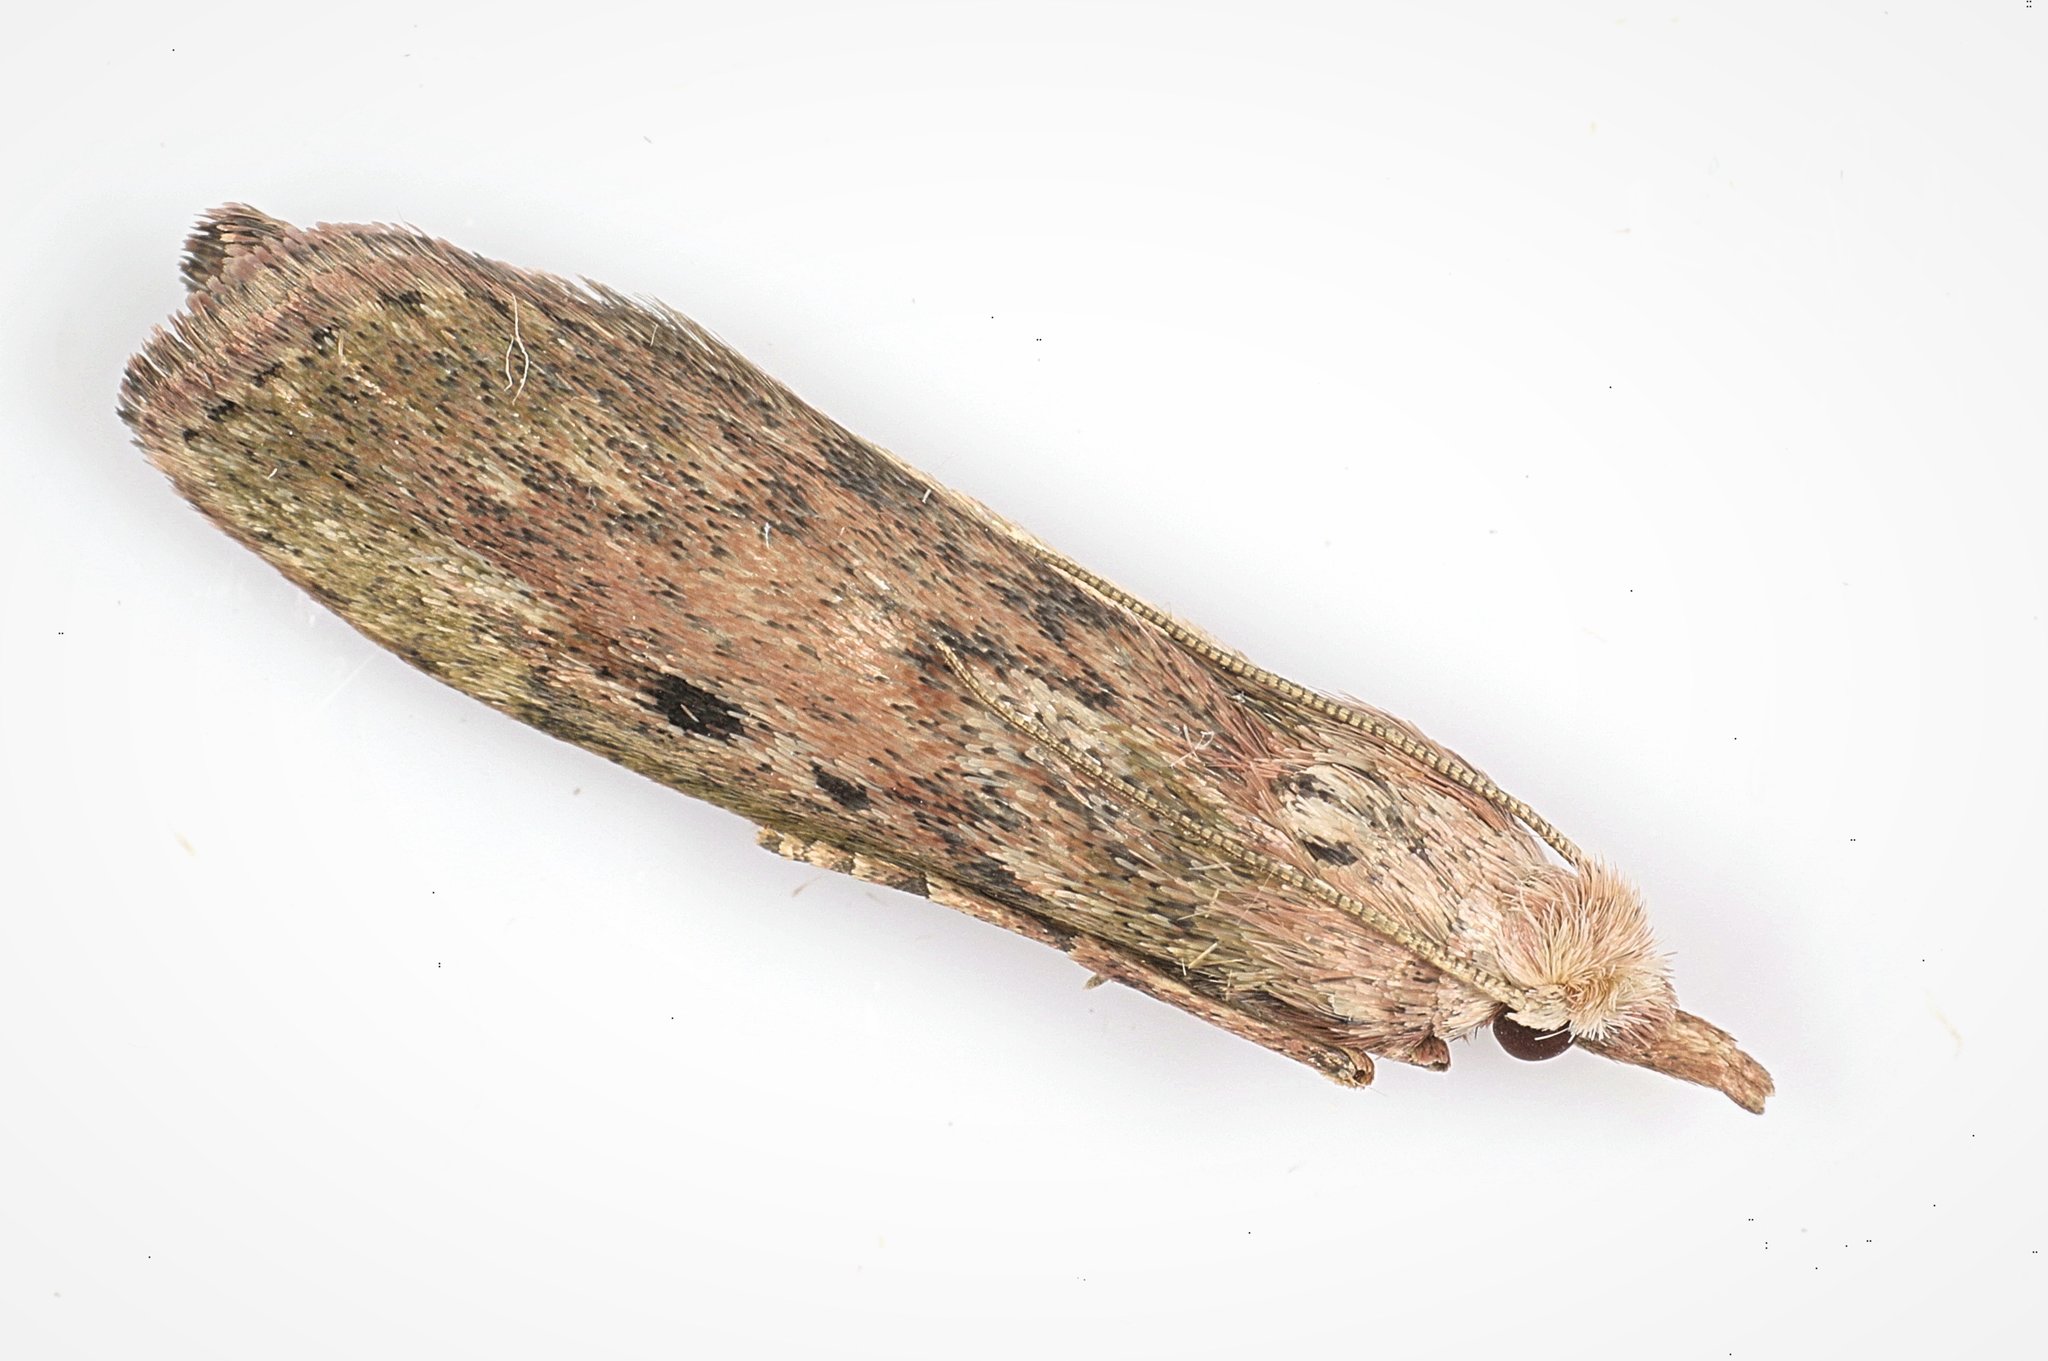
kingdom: Animalia
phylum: Arthropoda
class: Insecta
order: Lepidoptera
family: Pyralidae
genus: Aphomia
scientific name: Aphomia sociella
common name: Bee moth
